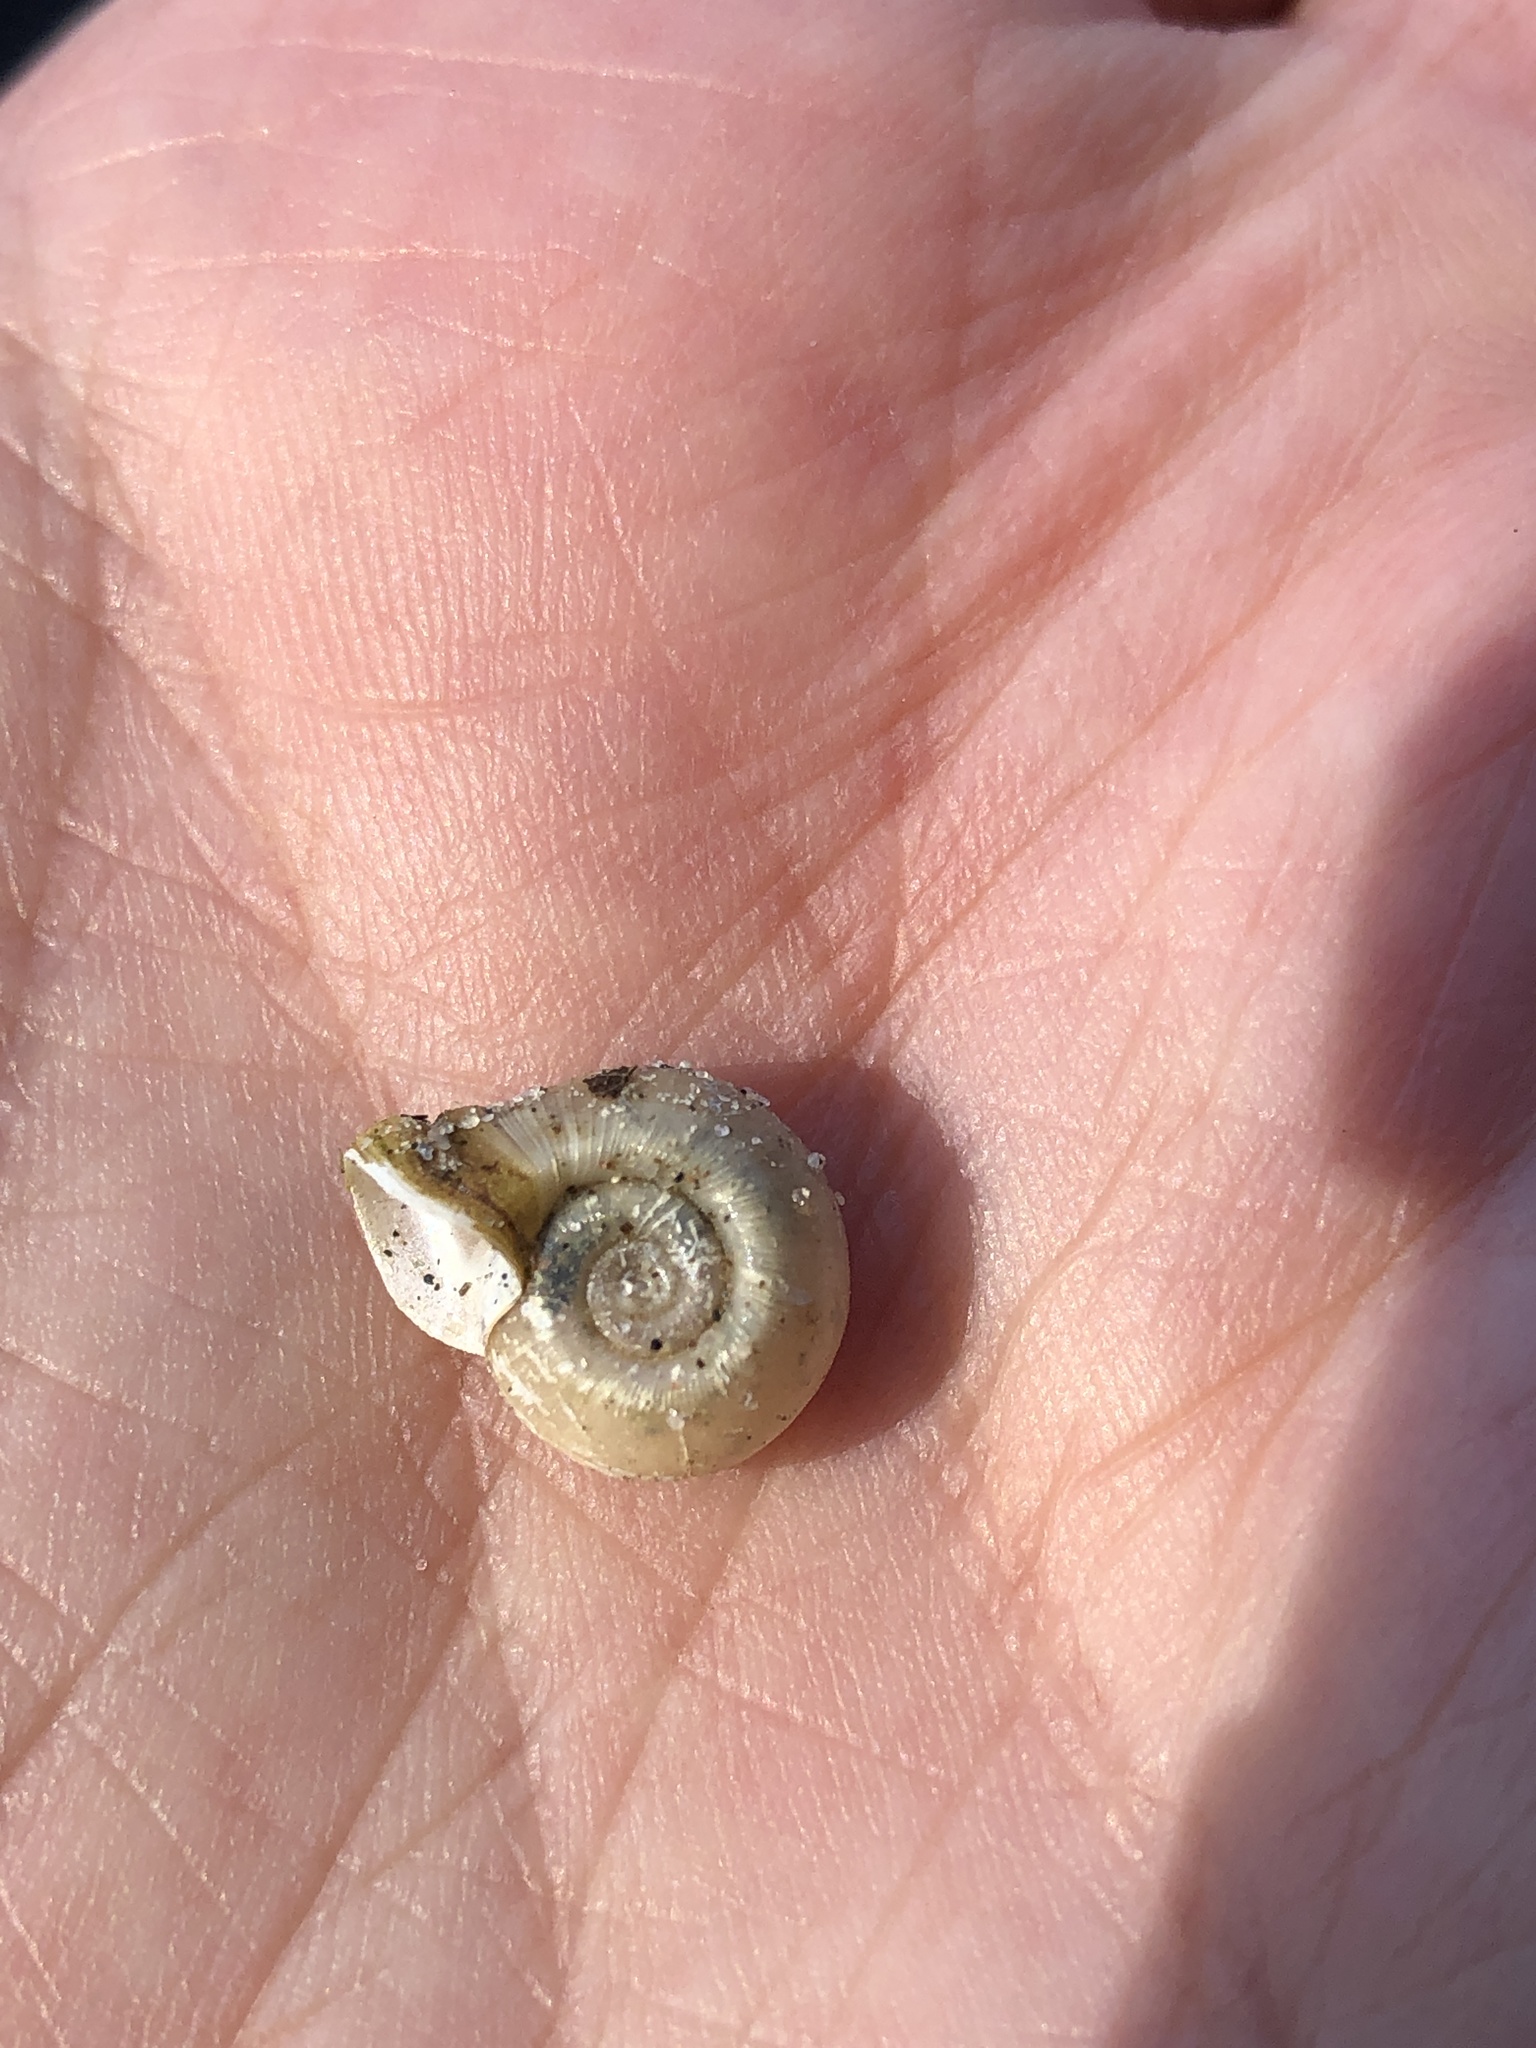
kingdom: Animalia
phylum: Mollusca
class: Gastropoda
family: Planorbidae
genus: Planorbella
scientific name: Planorbella campanulata
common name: Bellmouth ramshorn
